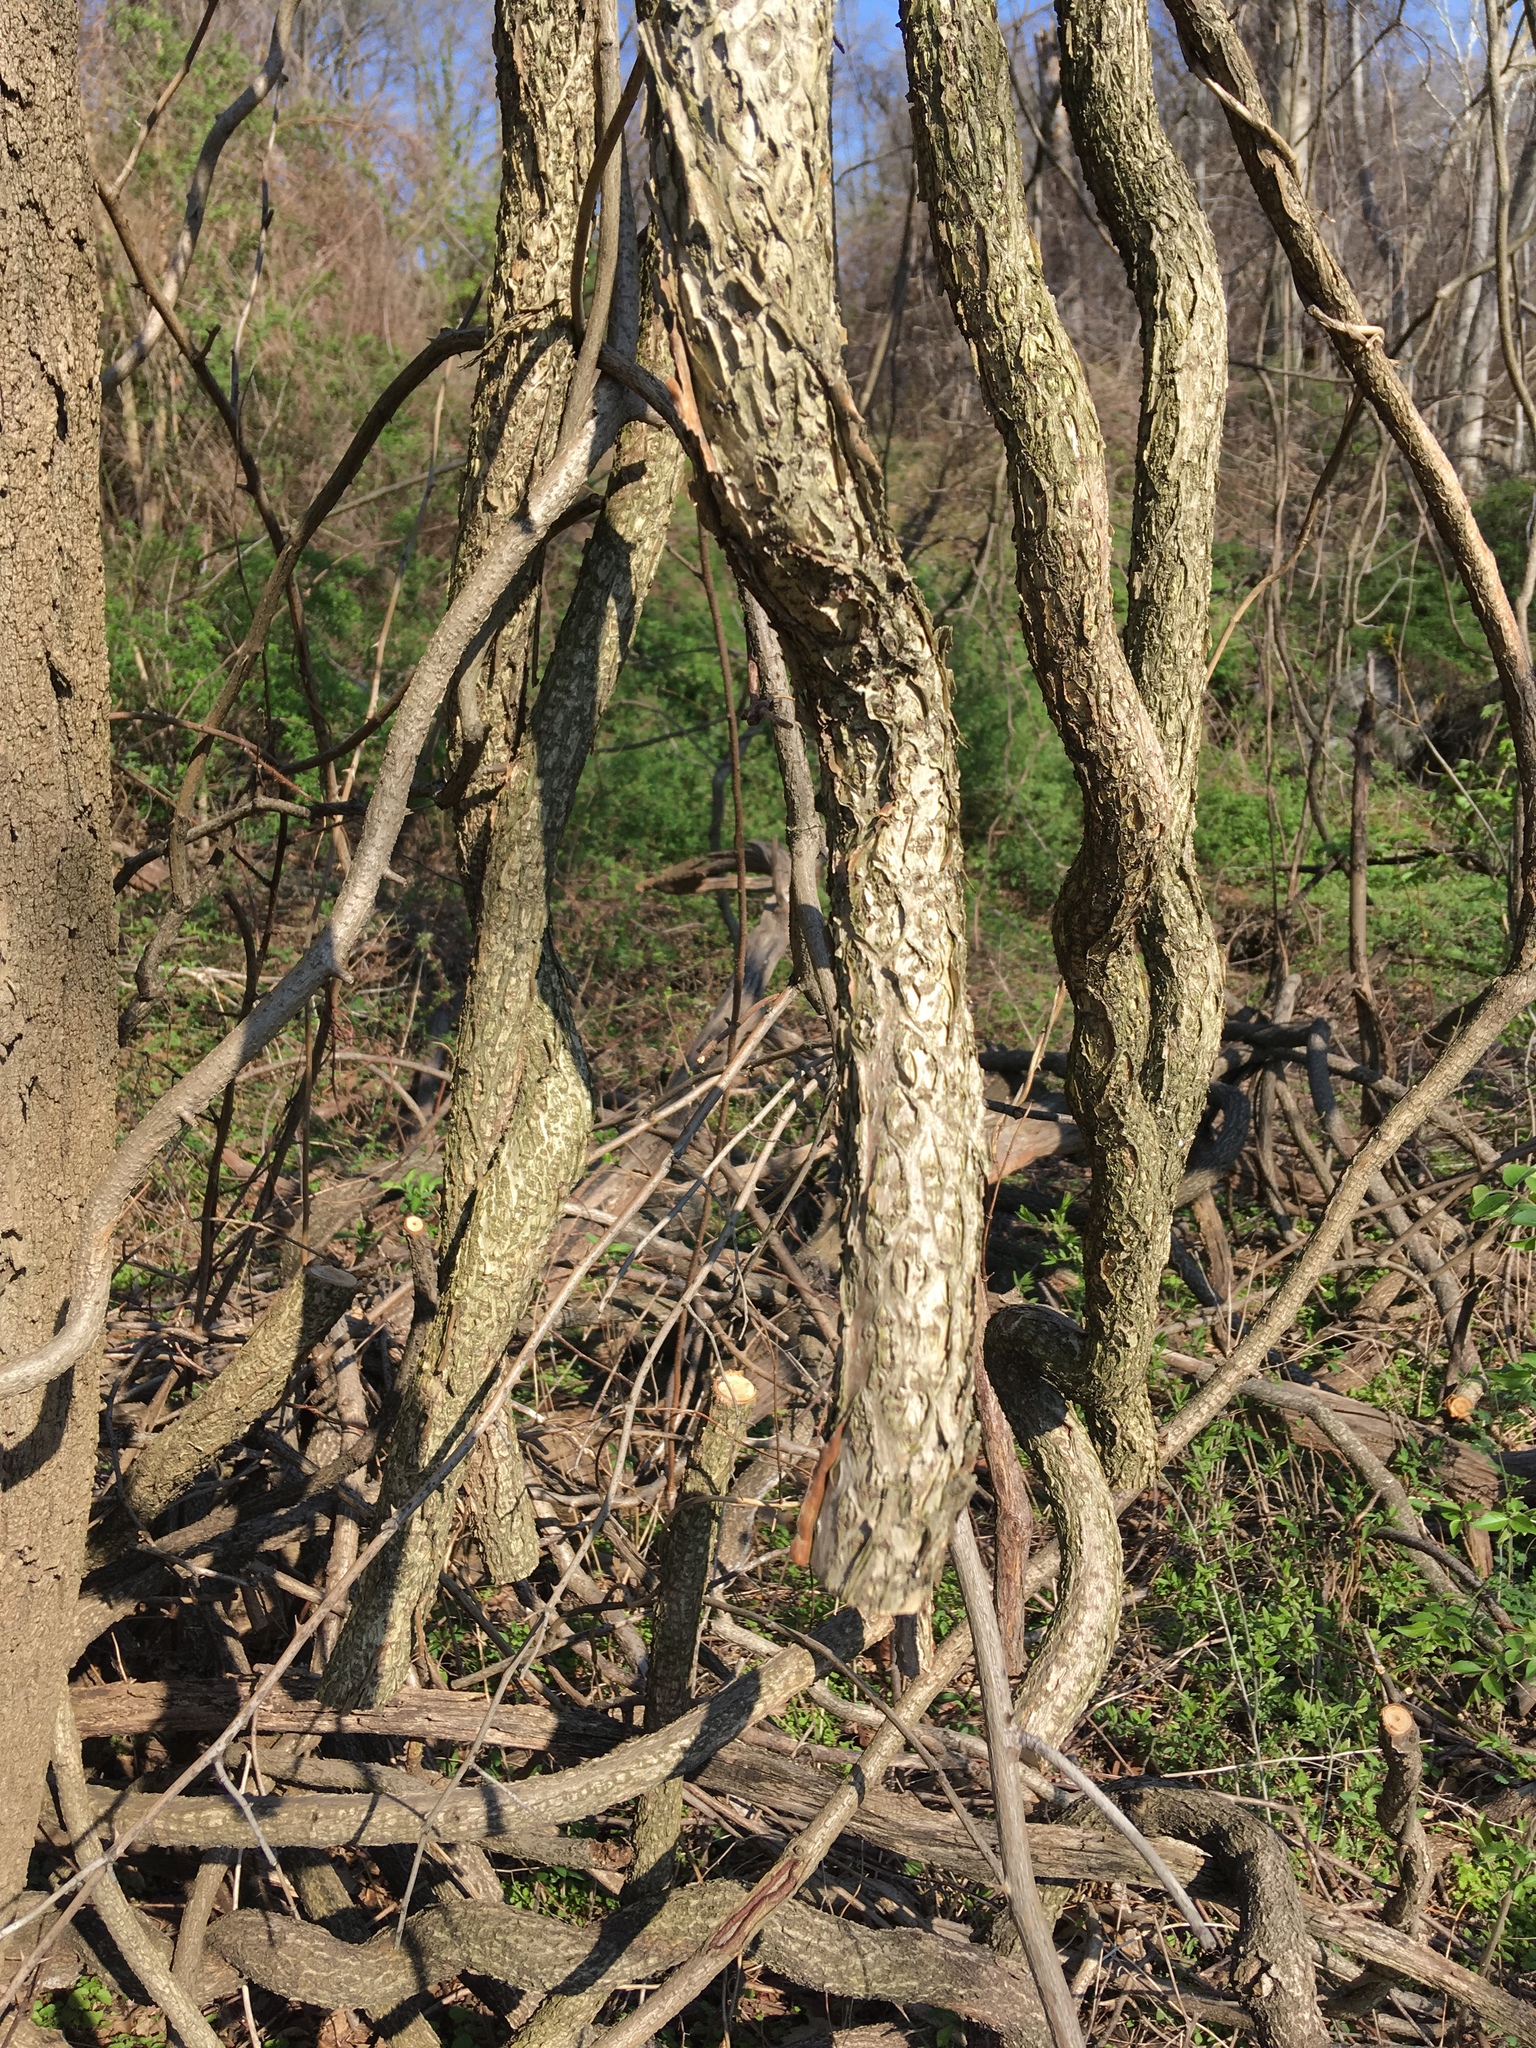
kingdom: Plantae
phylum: Tracheophyta
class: Magnoliopsida
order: Celastrales
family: Celastraceae
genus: Celastrus
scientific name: Celastrus orbiculatus
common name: Oriental bittersweet
